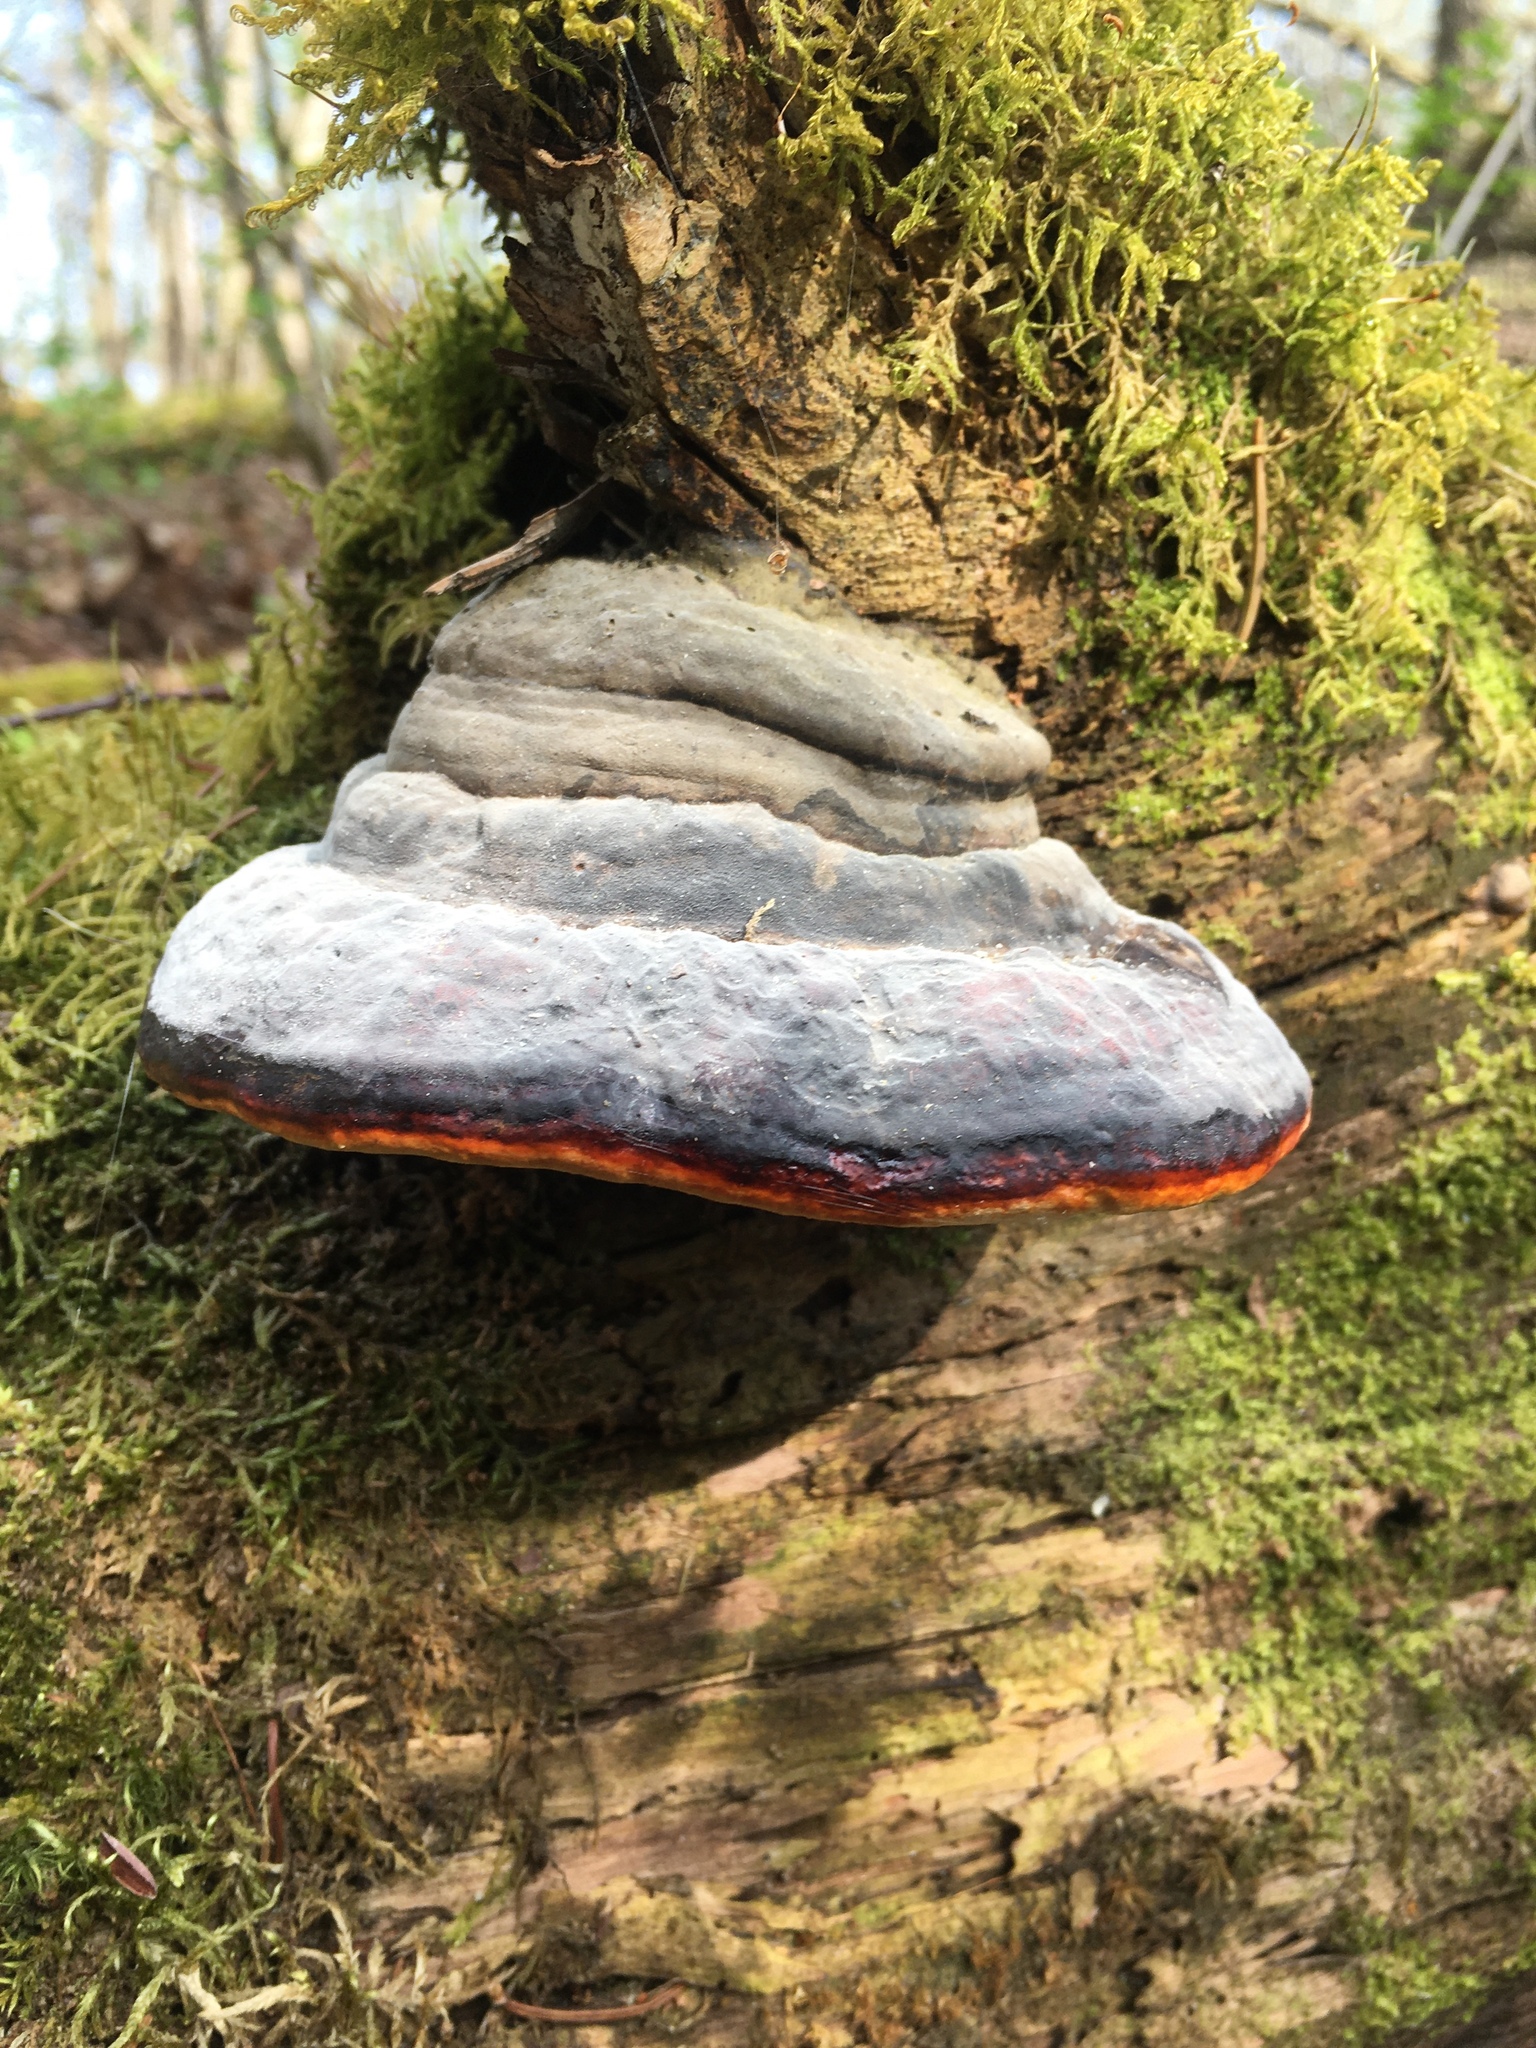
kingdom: Fungi
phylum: Basidiomycota
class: Agaricomycetes
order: Polyporales
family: Fomitopsidaceae
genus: Fomitopsis
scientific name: Fomitopsis pinicola
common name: Red-belted bracket
